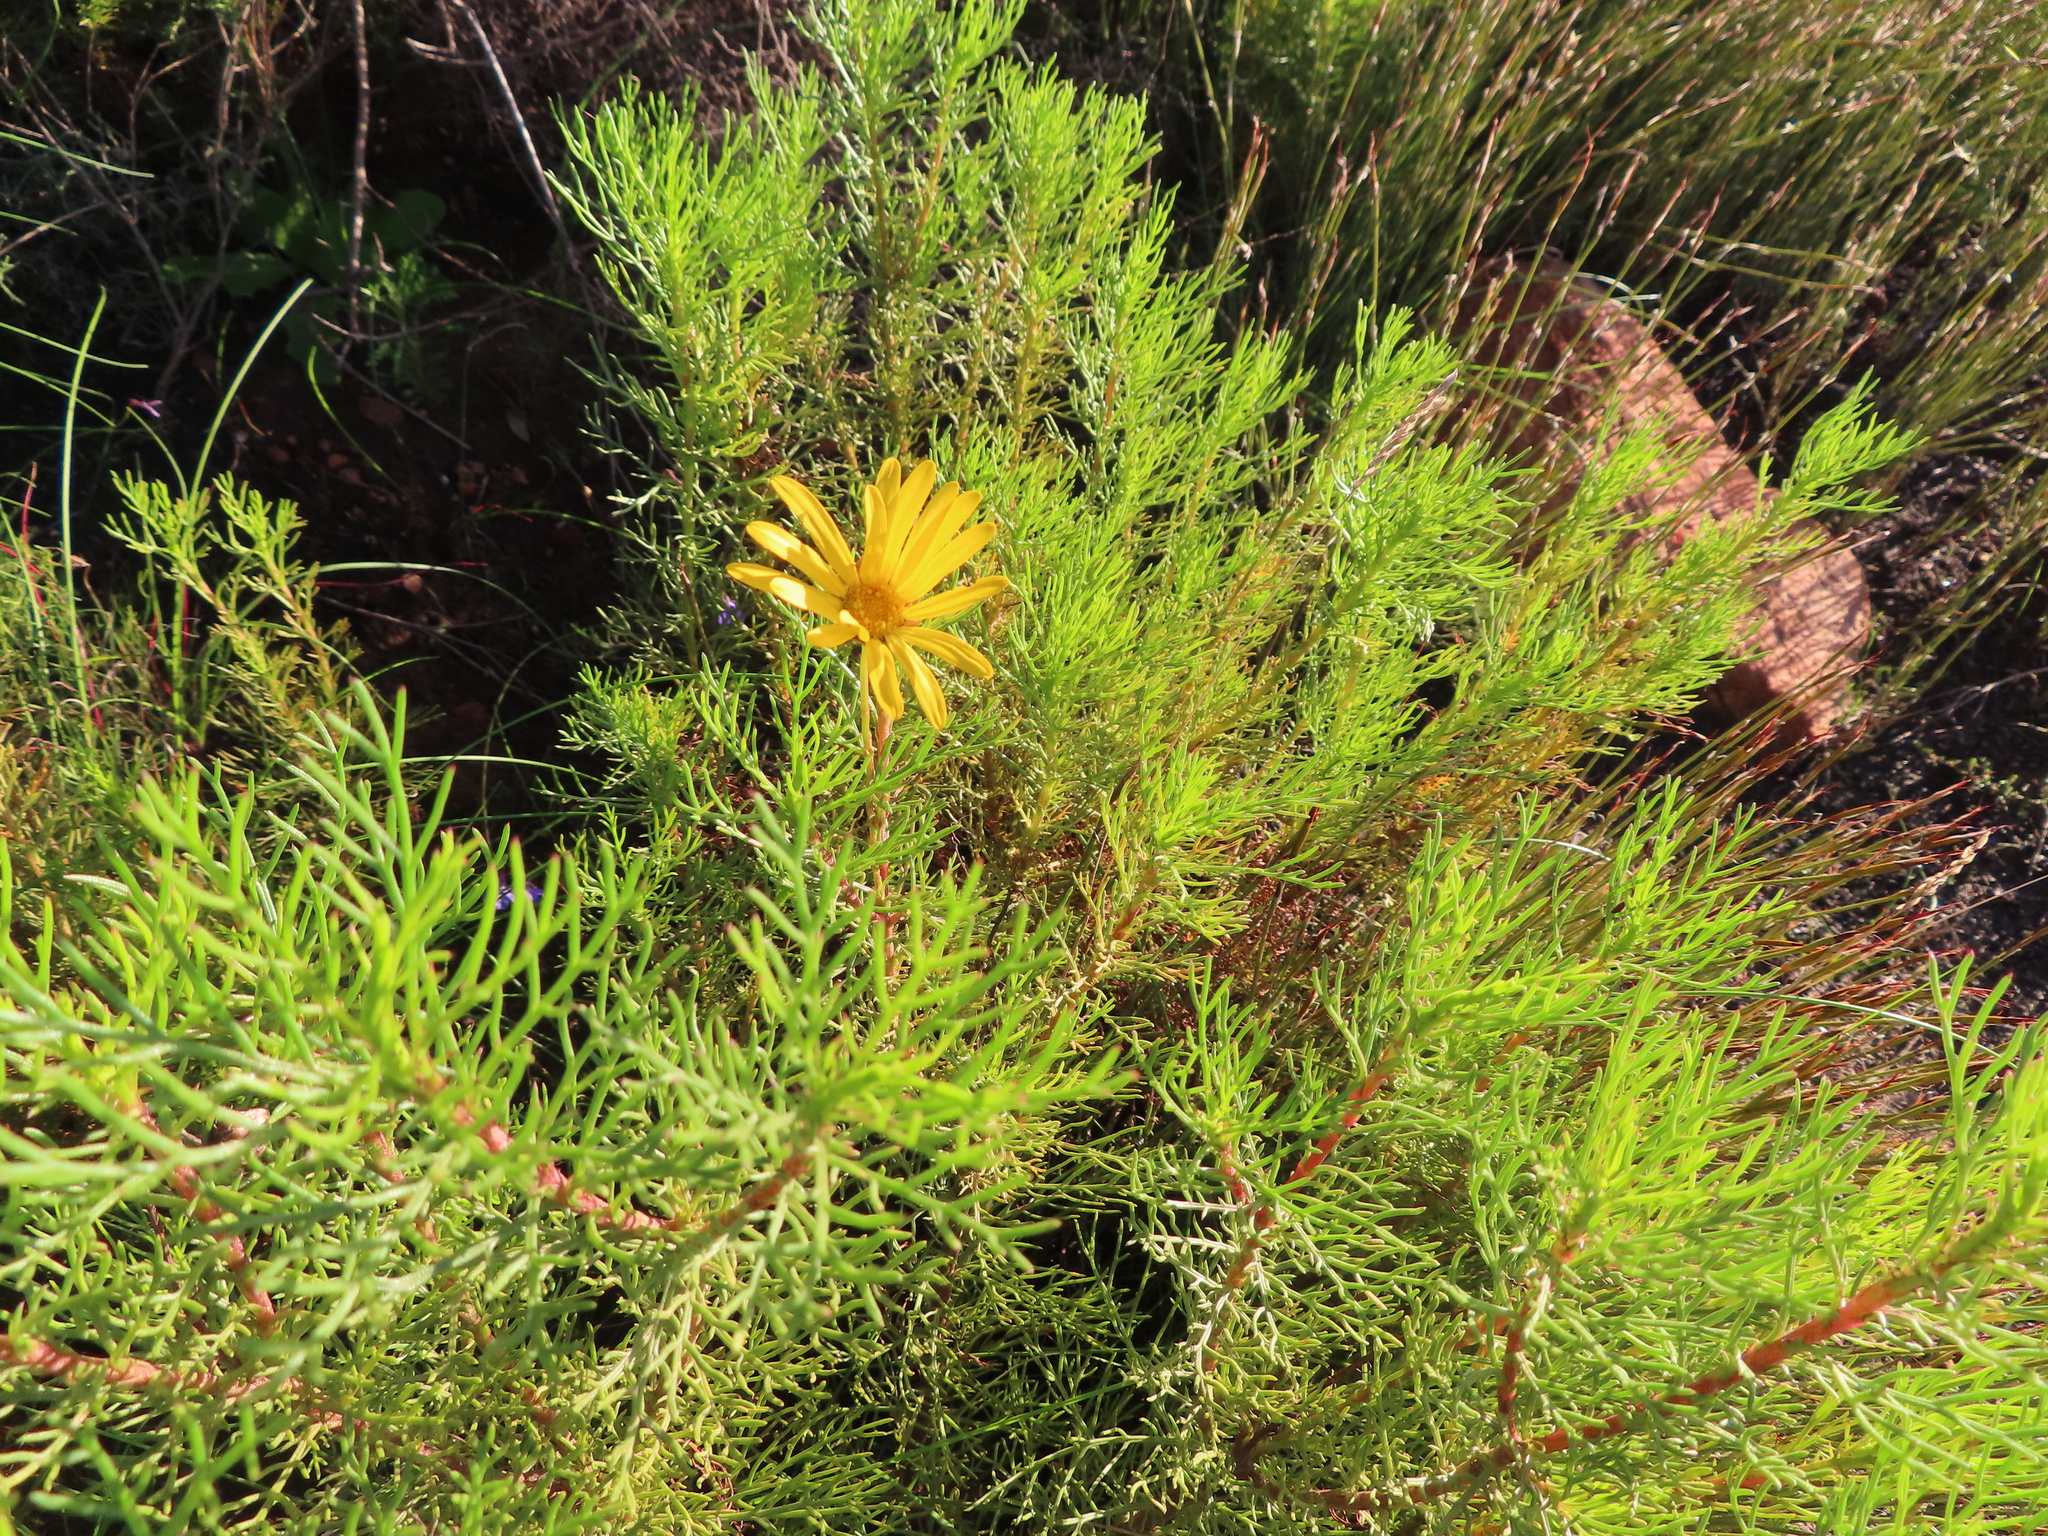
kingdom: Plantae
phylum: Tracheophyta
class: Magnoliopsida
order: Asterales
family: Asteraceae
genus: Ursinia
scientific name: Ursinia paleacea
